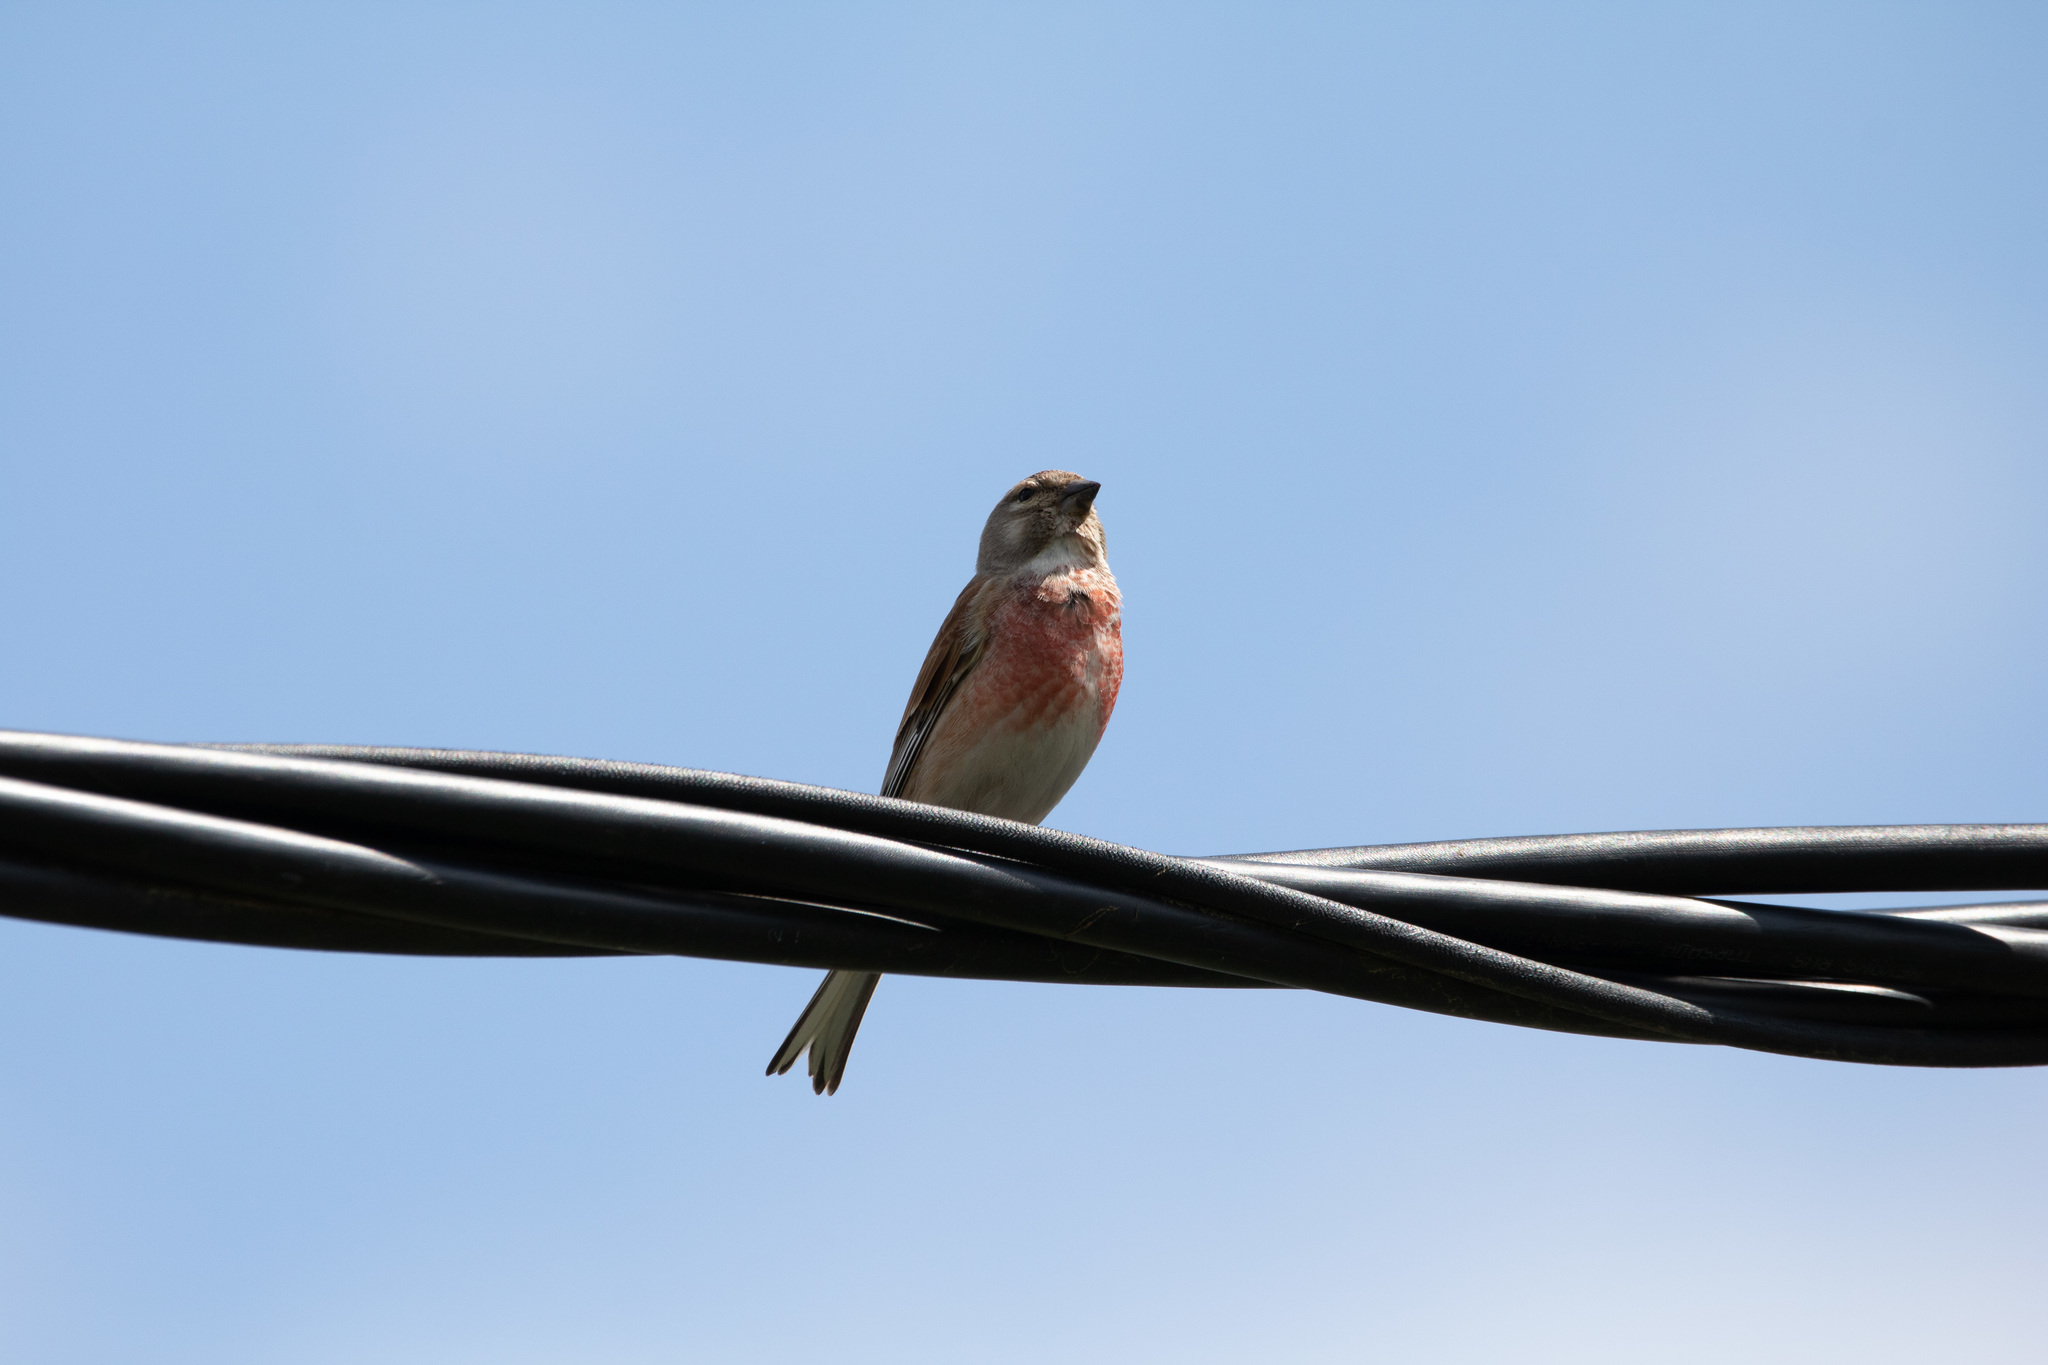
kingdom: Animalia
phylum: Chordata
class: Aves
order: Passeriformes
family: Fringillidae
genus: Linaria
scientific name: Linaria cannabina
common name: Common linnet
